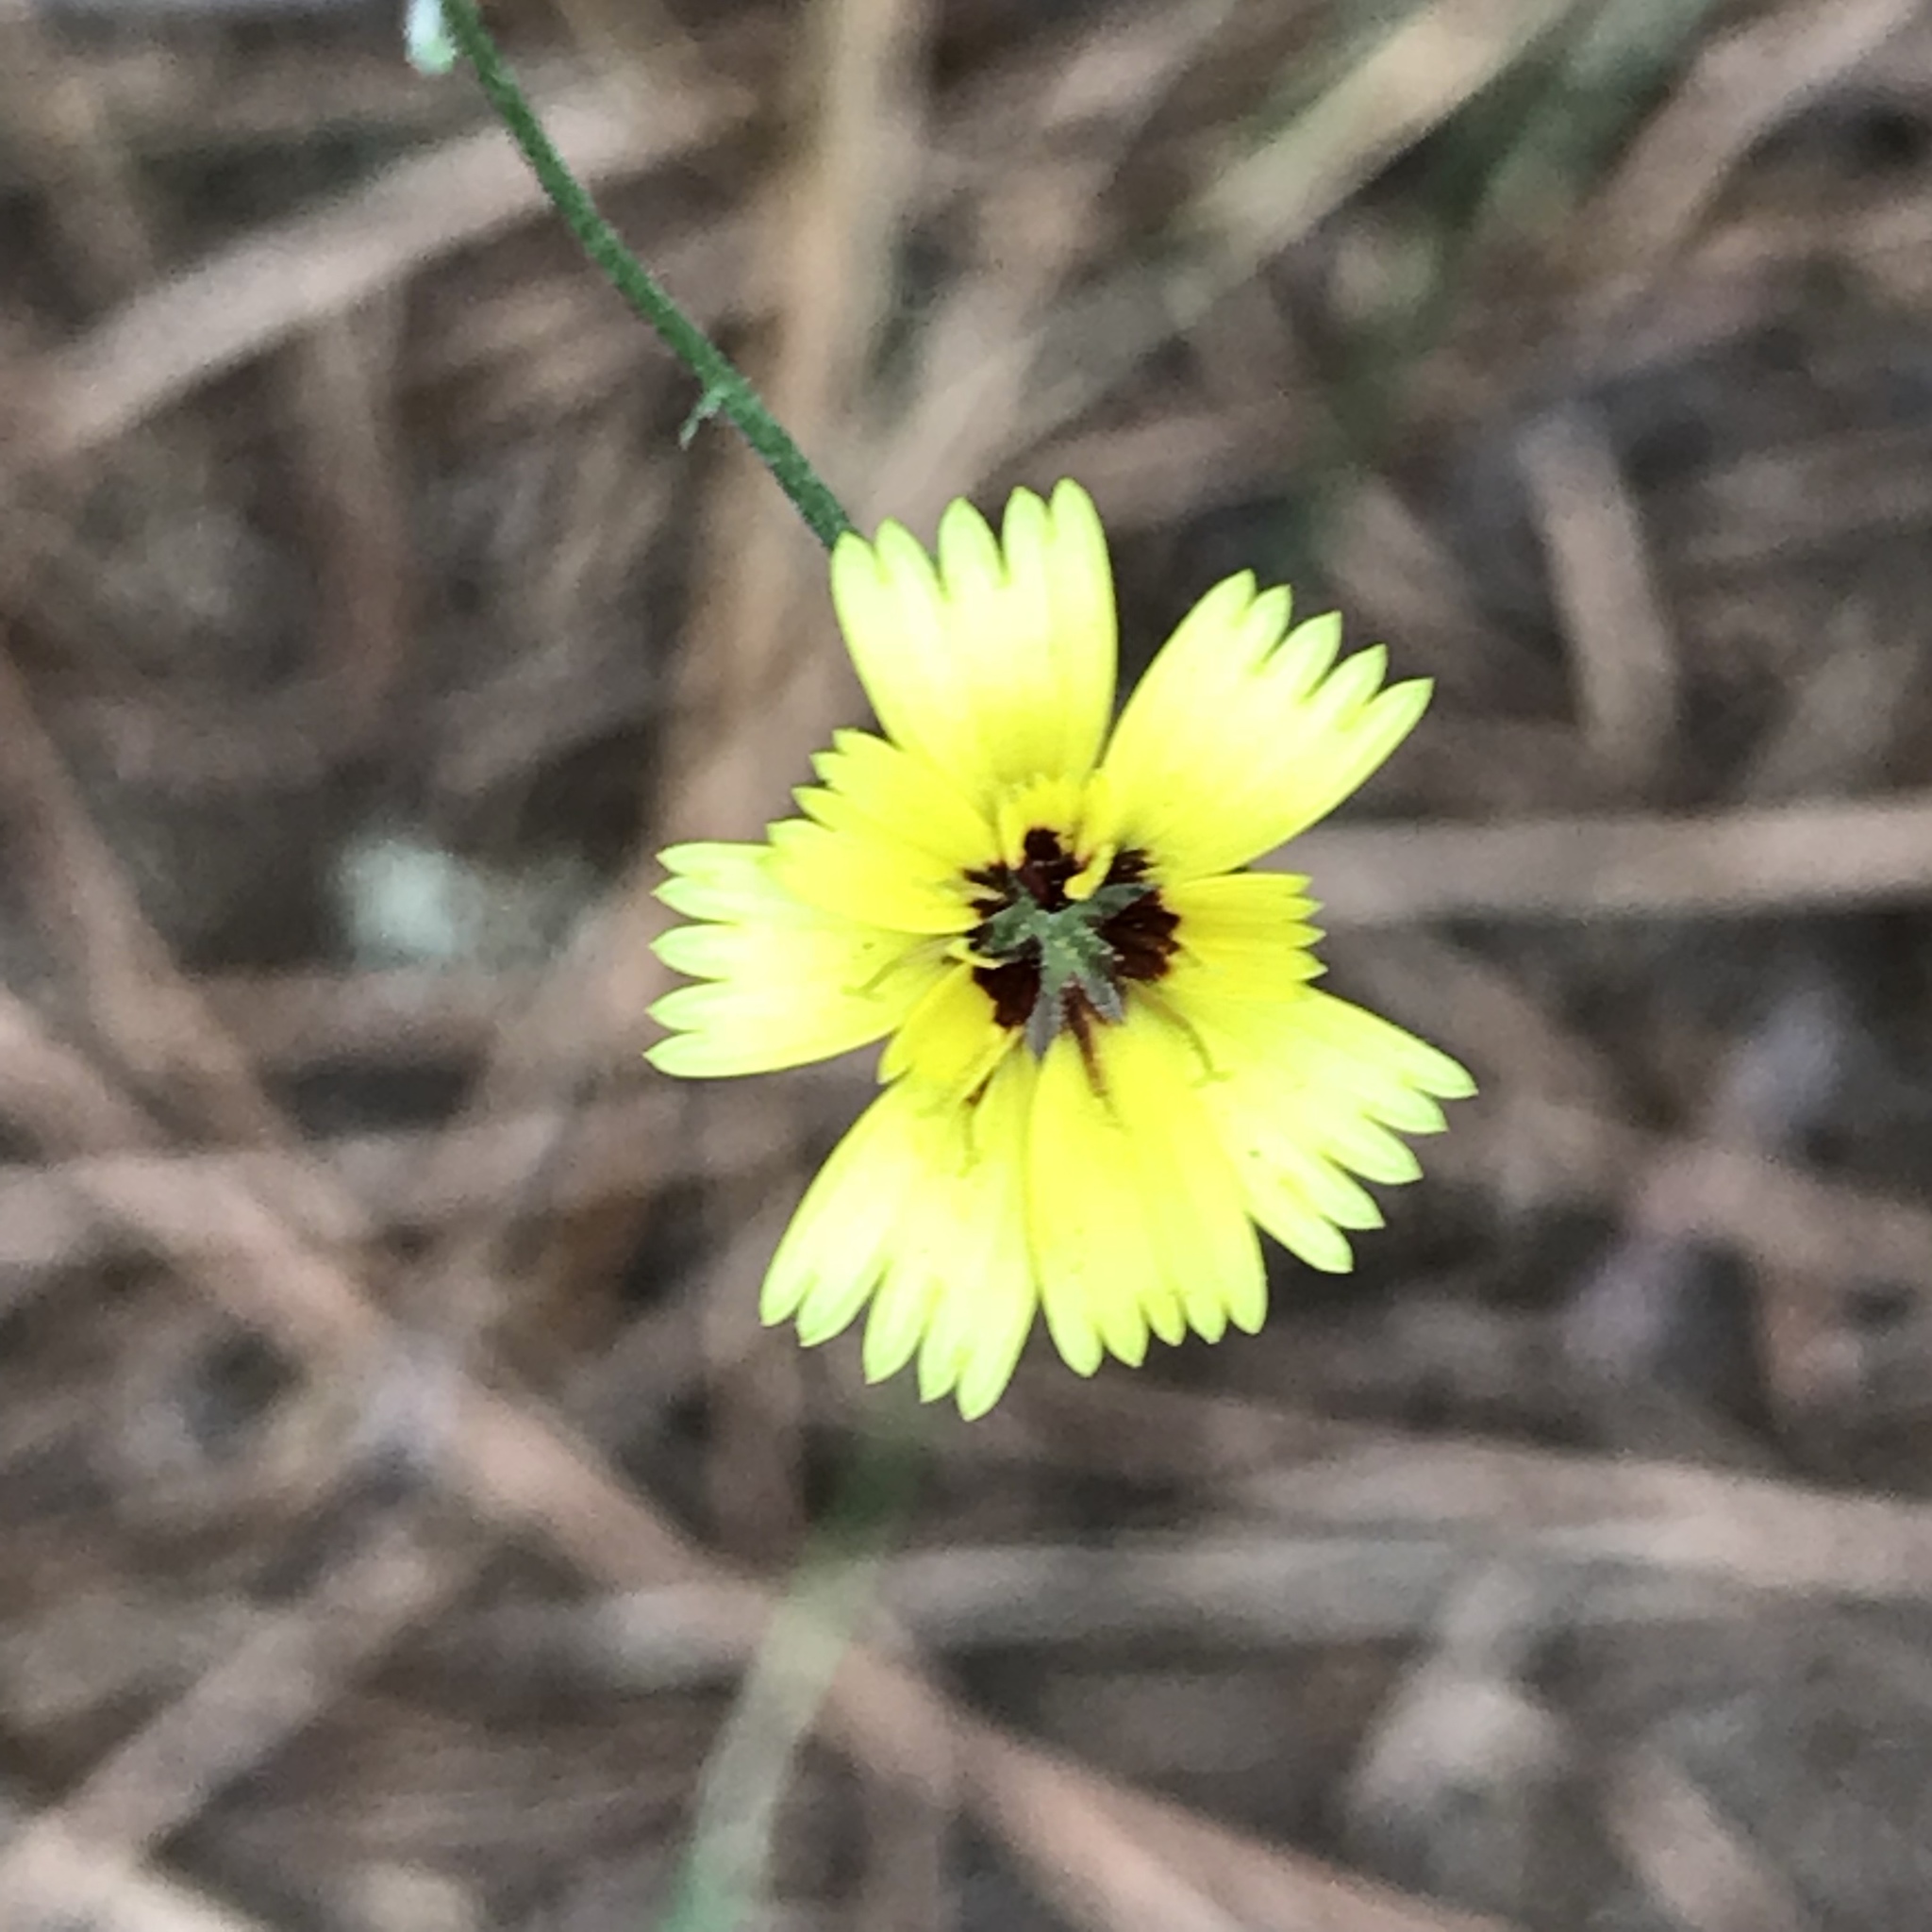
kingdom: Plantae
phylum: Tracheophyta
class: Magnoliopsida
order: Asterales
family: Asteraceae
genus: Tolpis
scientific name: Tolpis barbata
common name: Yellow hawkweed
